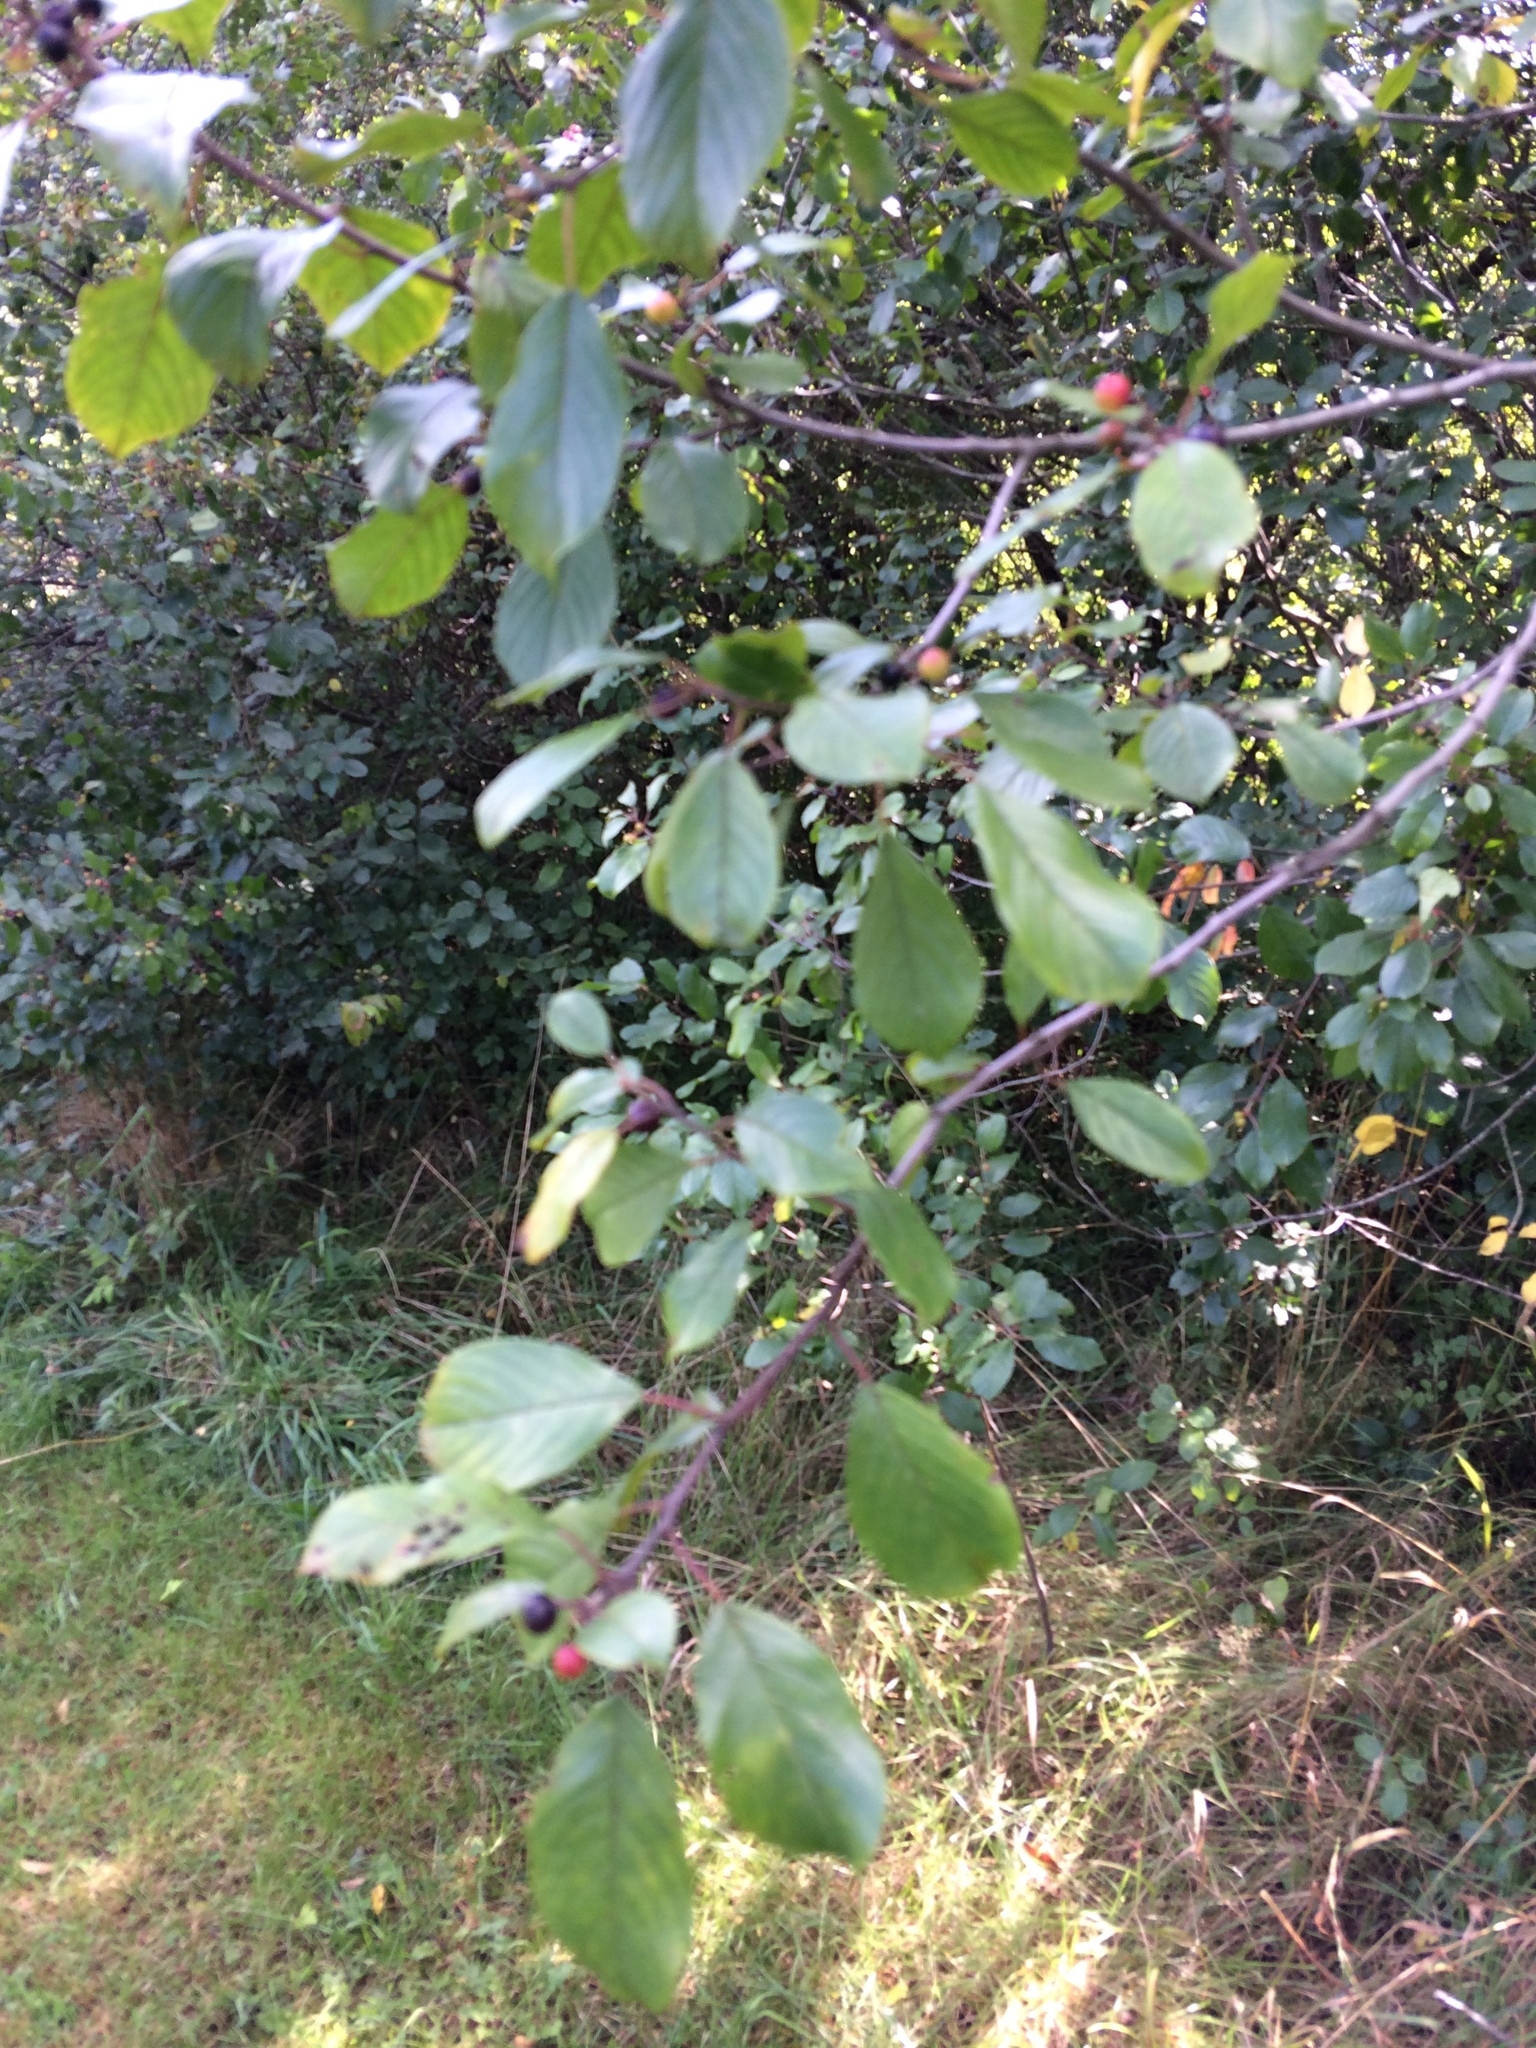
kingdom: Plantae
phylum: Tracheophyta
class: Magnoliopsida
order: Rosales
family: Rhamnaceae
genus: Frangula
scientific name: Frangula alnus
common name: Alder buckthorn
